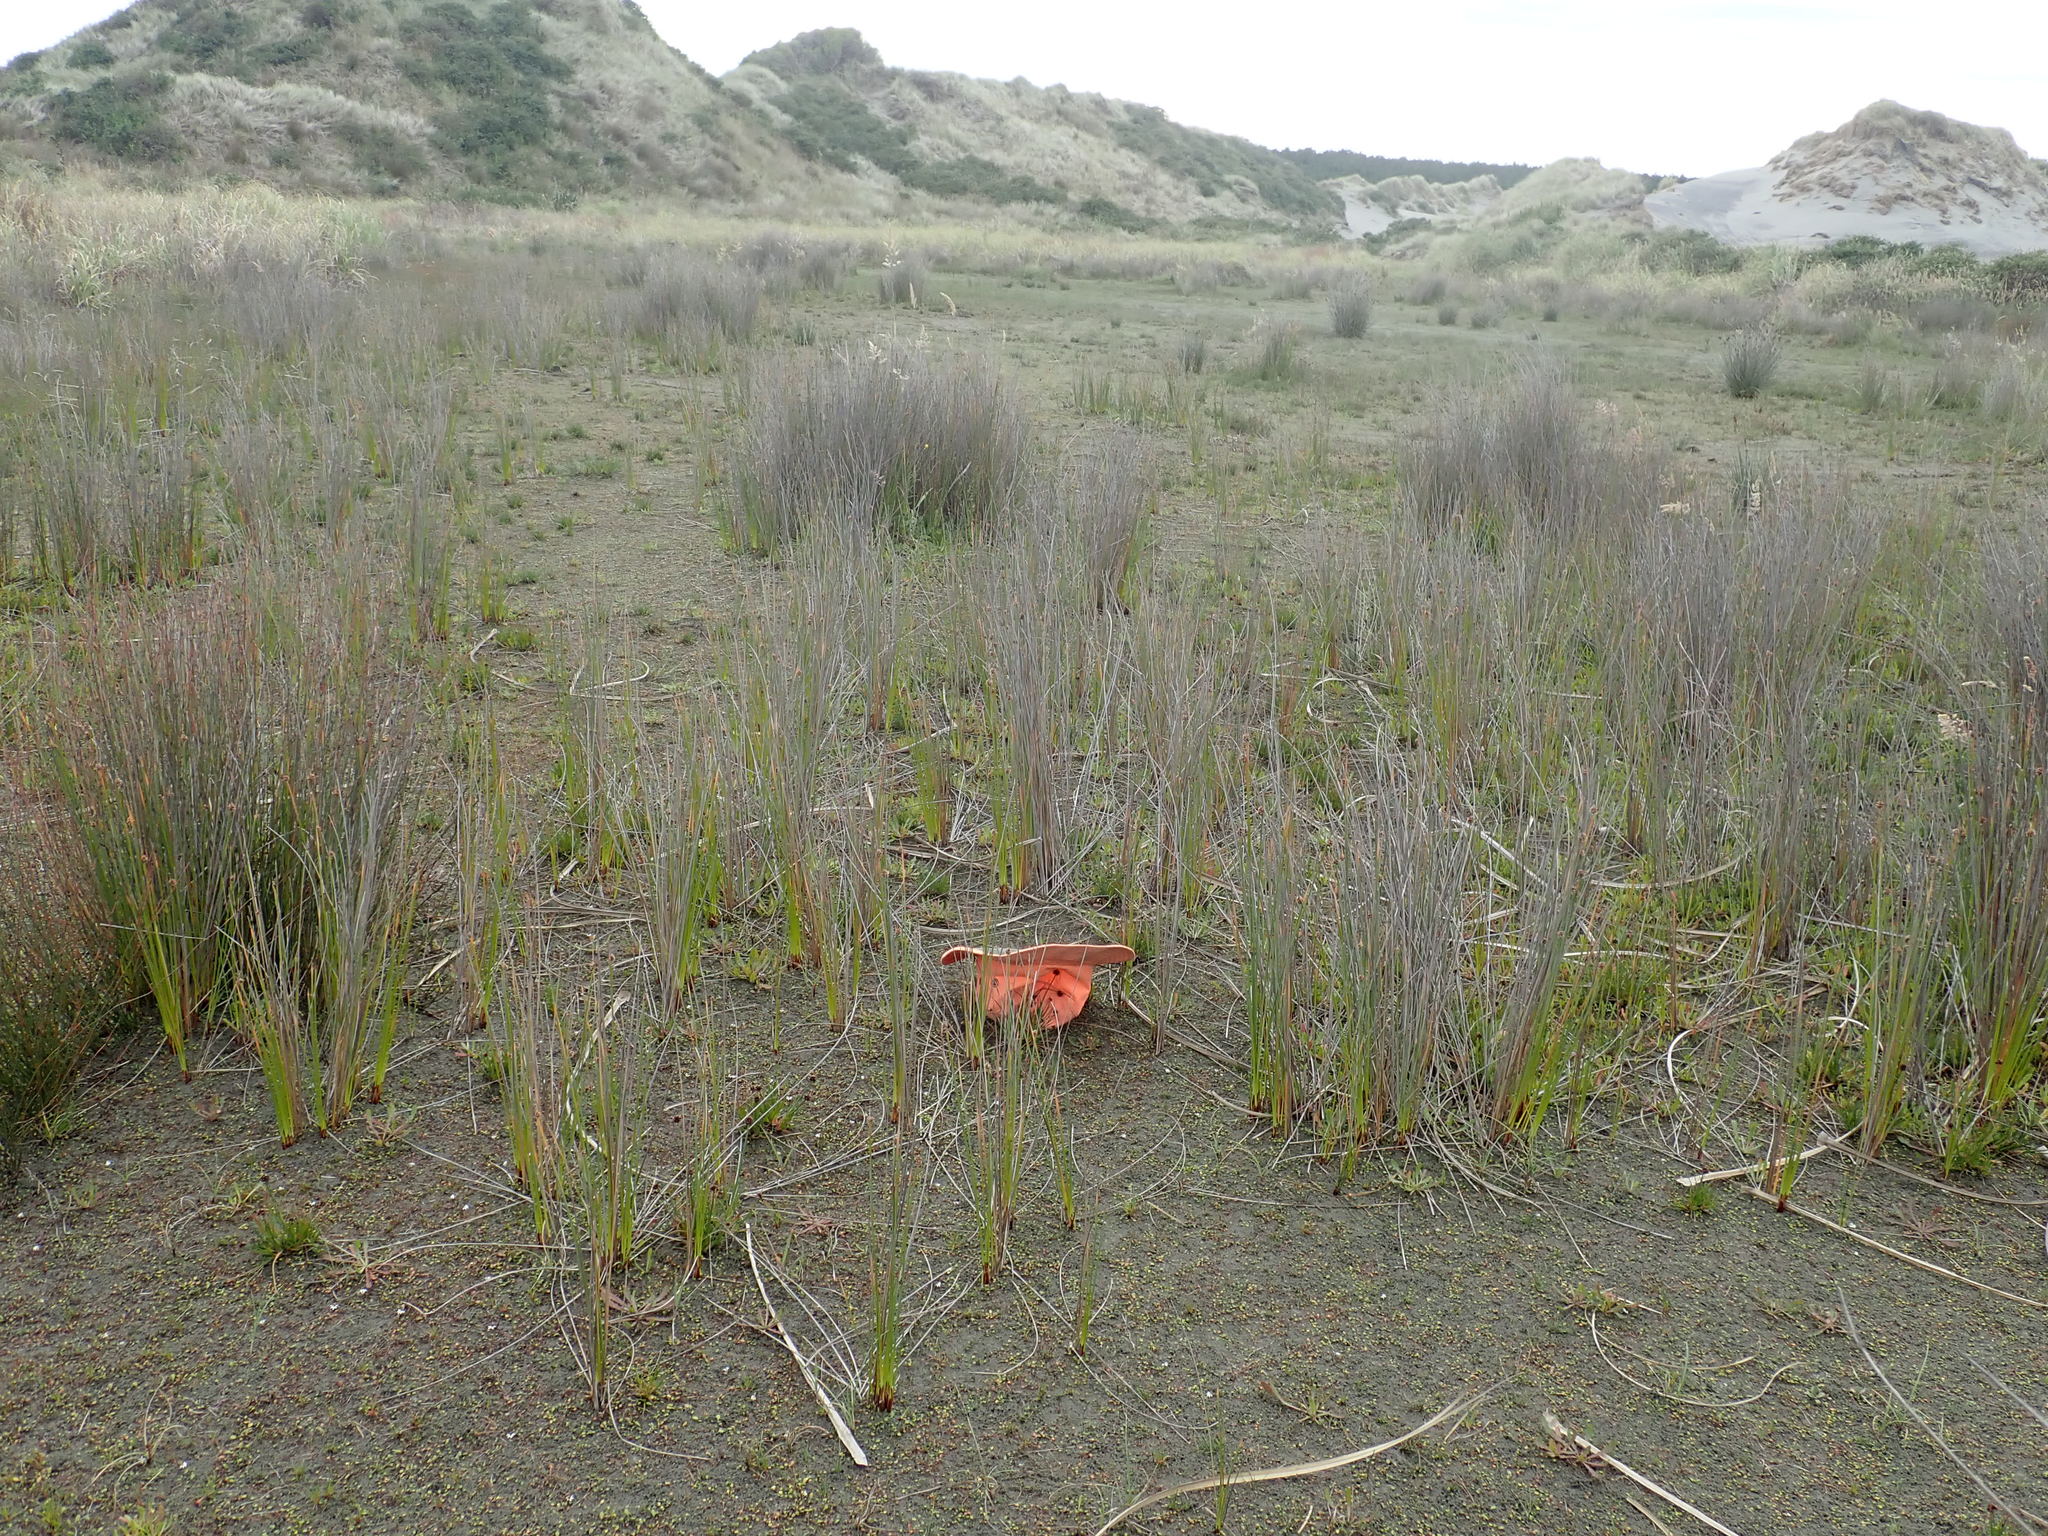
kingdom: Animalia
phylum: Mollusca
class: Gastropoda
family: Physidae
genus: Physella
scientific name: Physella acuta
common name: European physa
